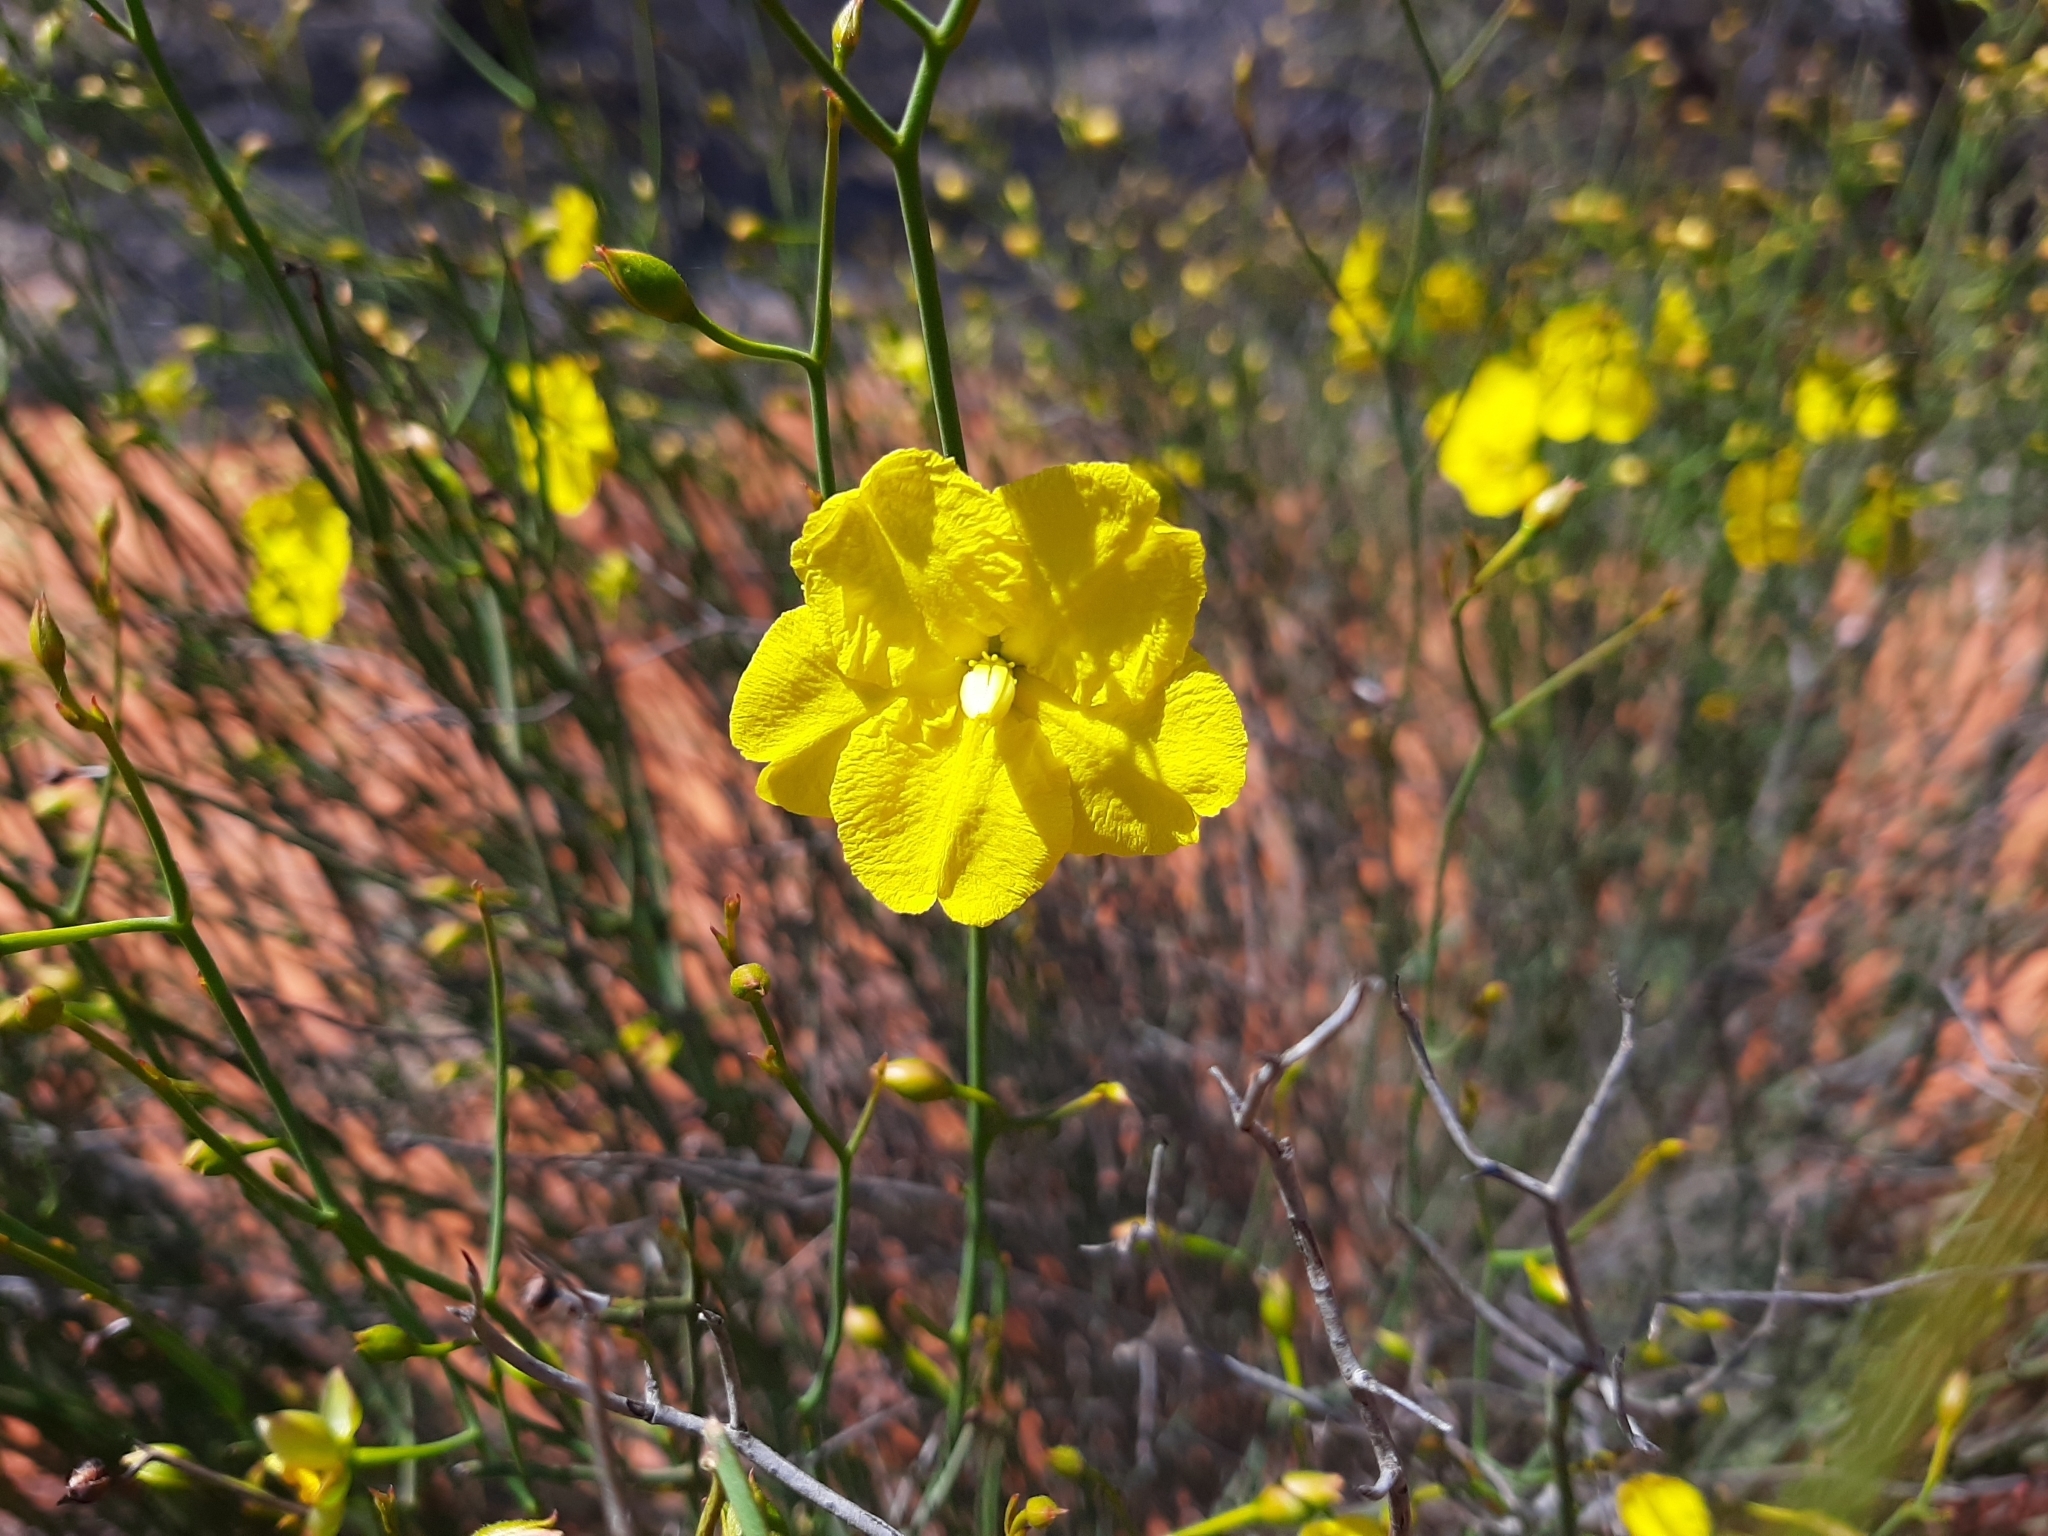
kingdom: Plantae
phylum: Tracheophyta
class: Magnoliopsida
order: Dilleniales
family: Dilleniaceae
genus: Hibbertia
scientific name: Hibbertia conspicua
